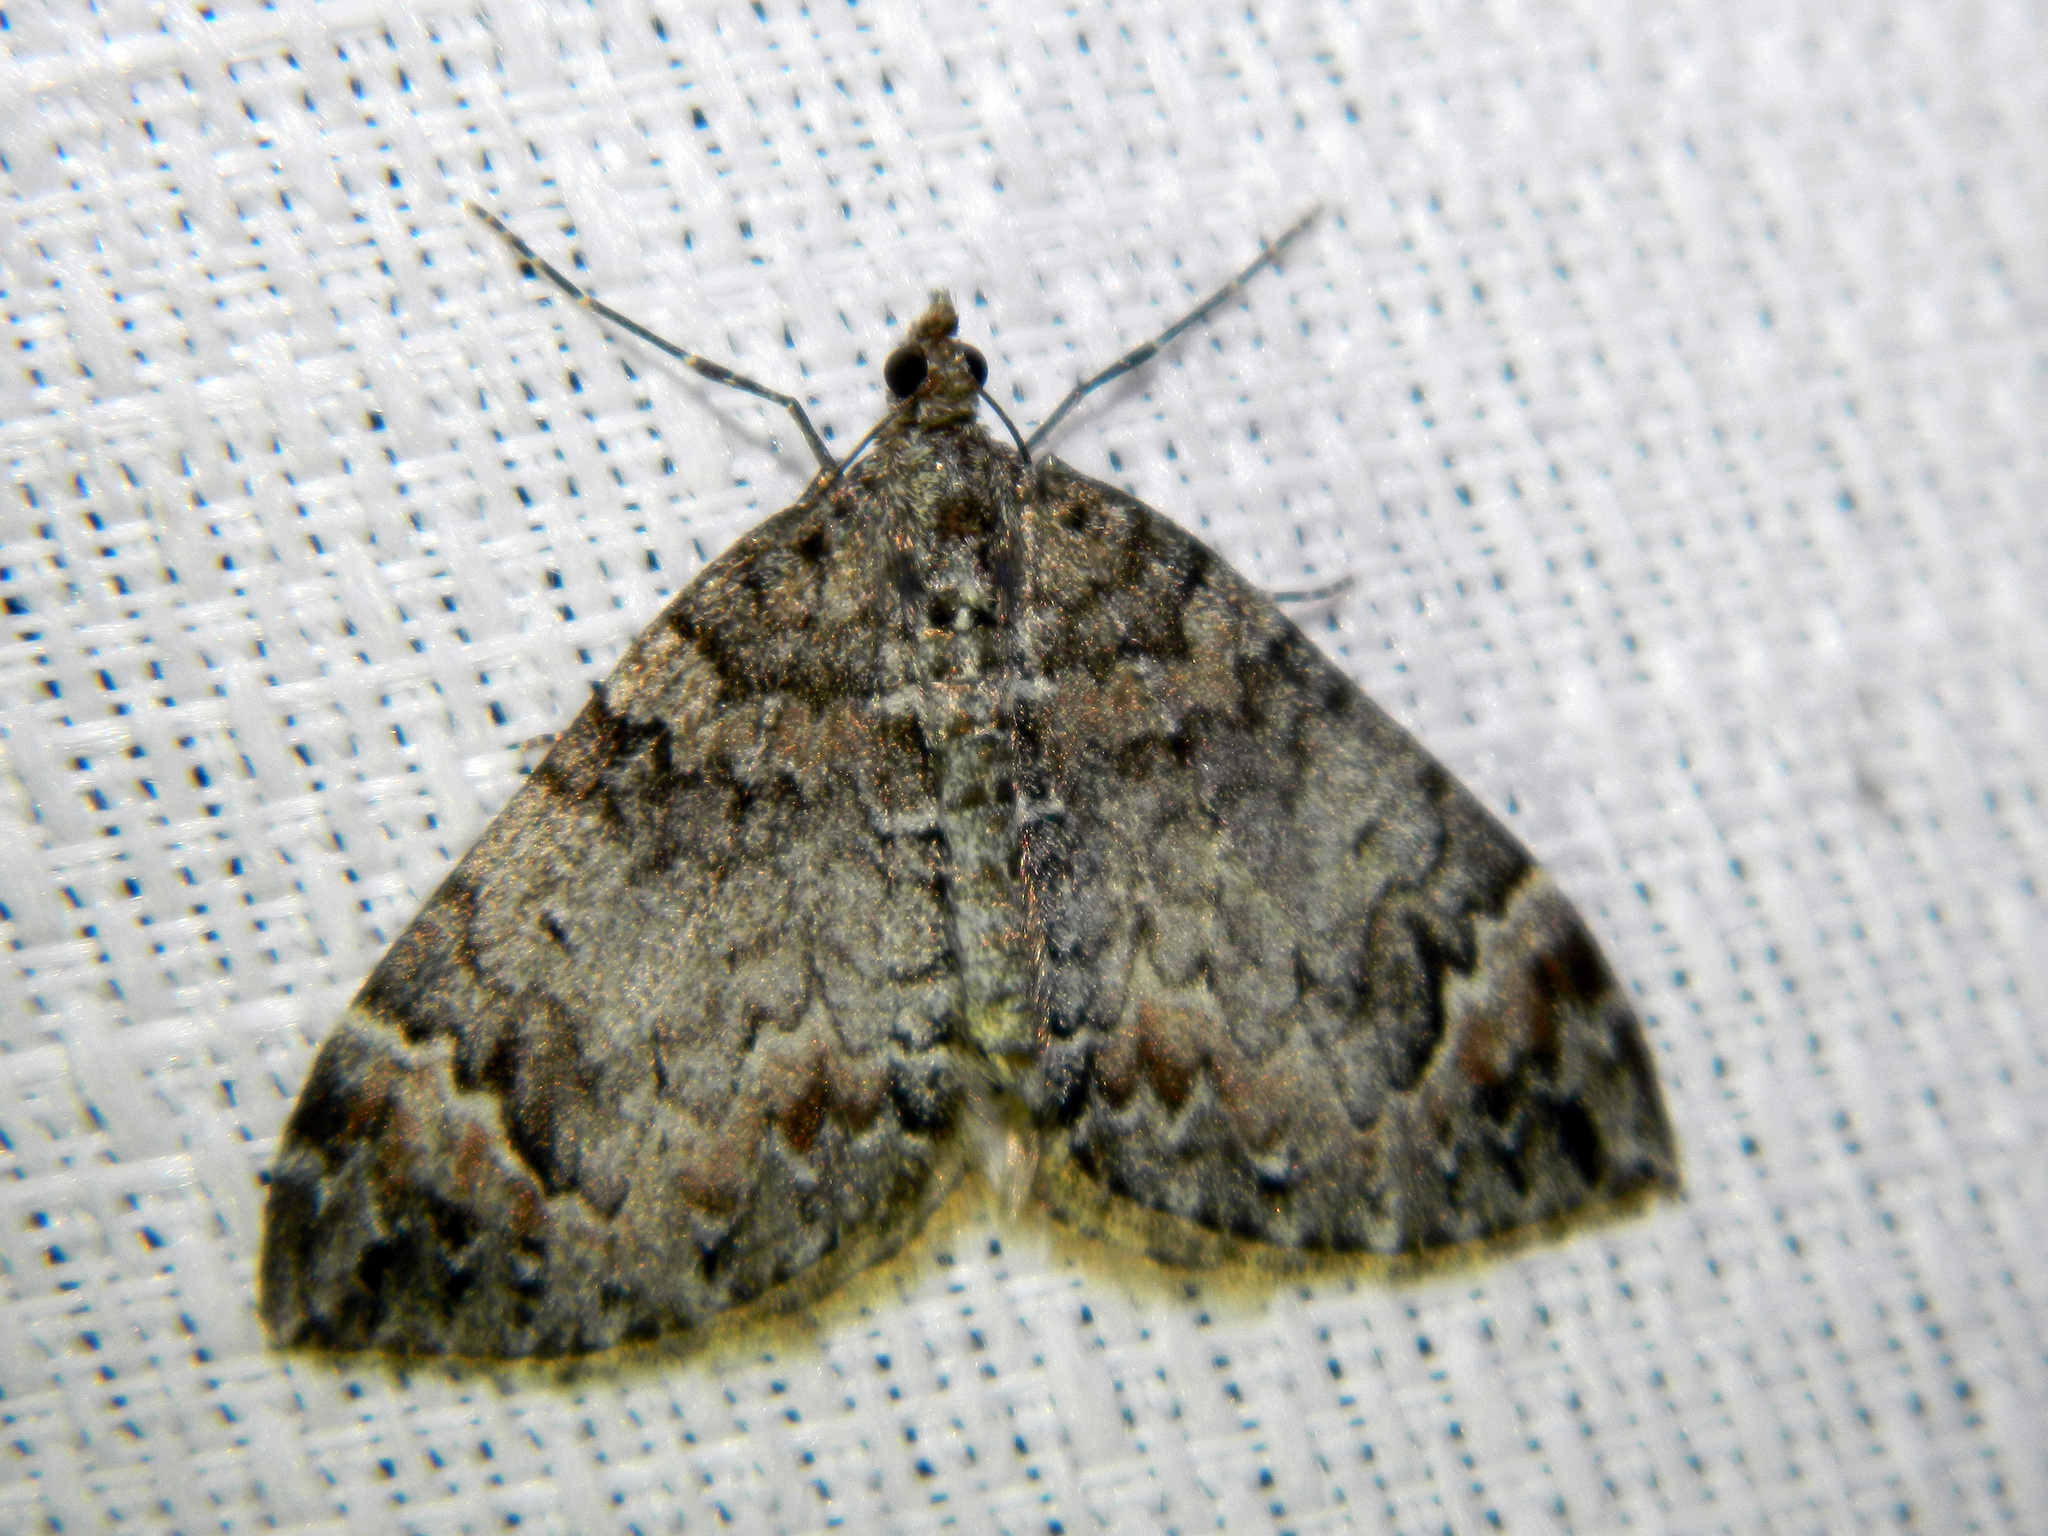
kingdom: Animalia
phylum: Arthropoda
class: Insecta
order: Lepidoptera
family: Geometridae
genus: Dysstroma
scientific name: Dysstroma citrata
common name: Dark marbled carpet
